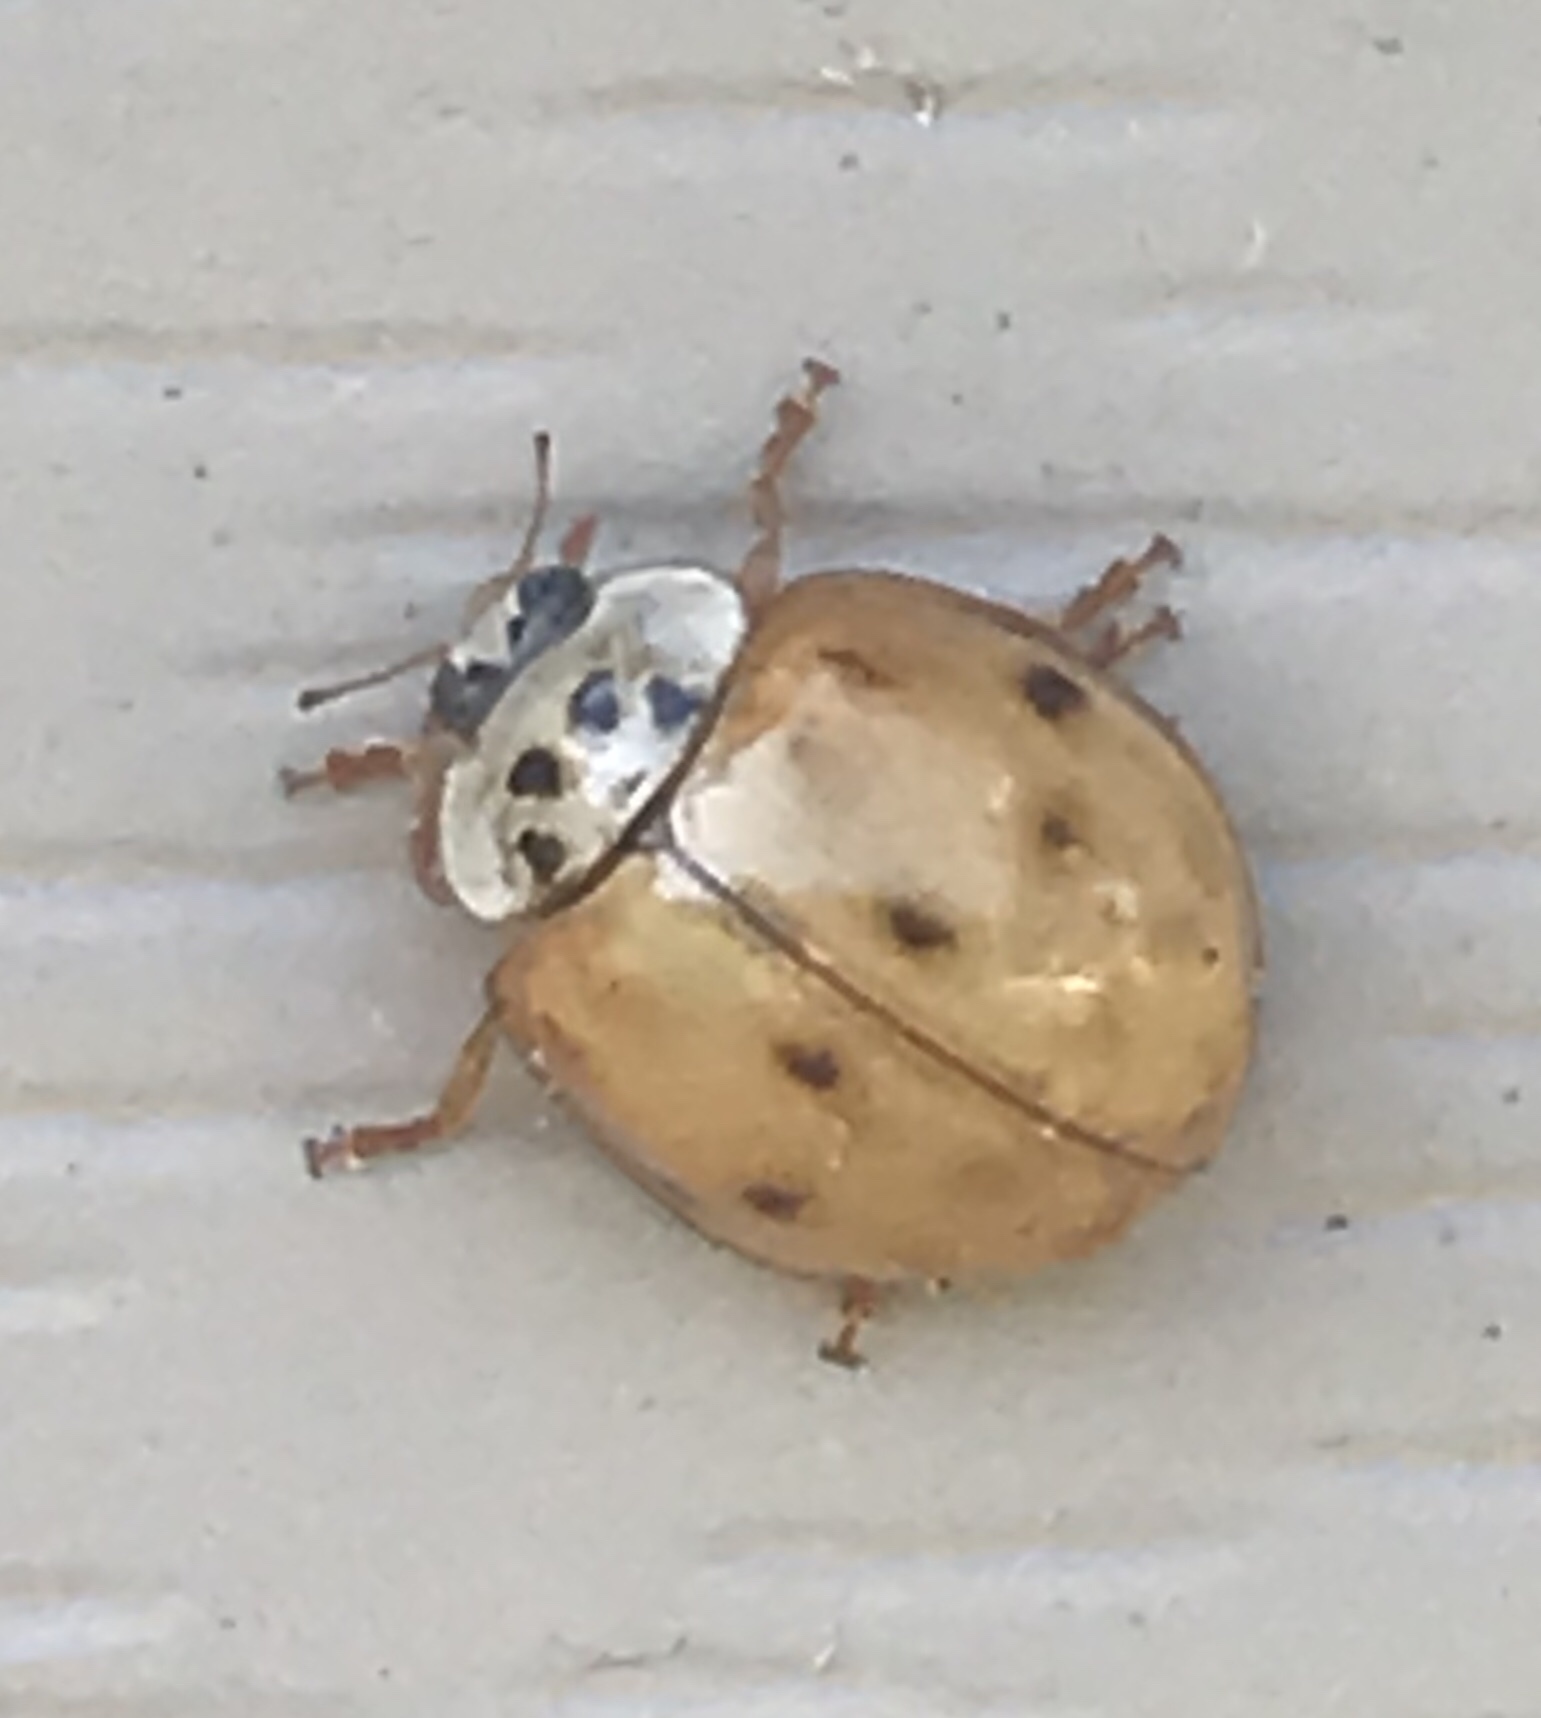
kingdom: Animalia
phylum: Arthropoda
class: Insecta
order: Coleoptera
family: Coccinellidae
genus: Harmonia
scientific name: Harmonia axyridis
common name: Harlequin ladybird
